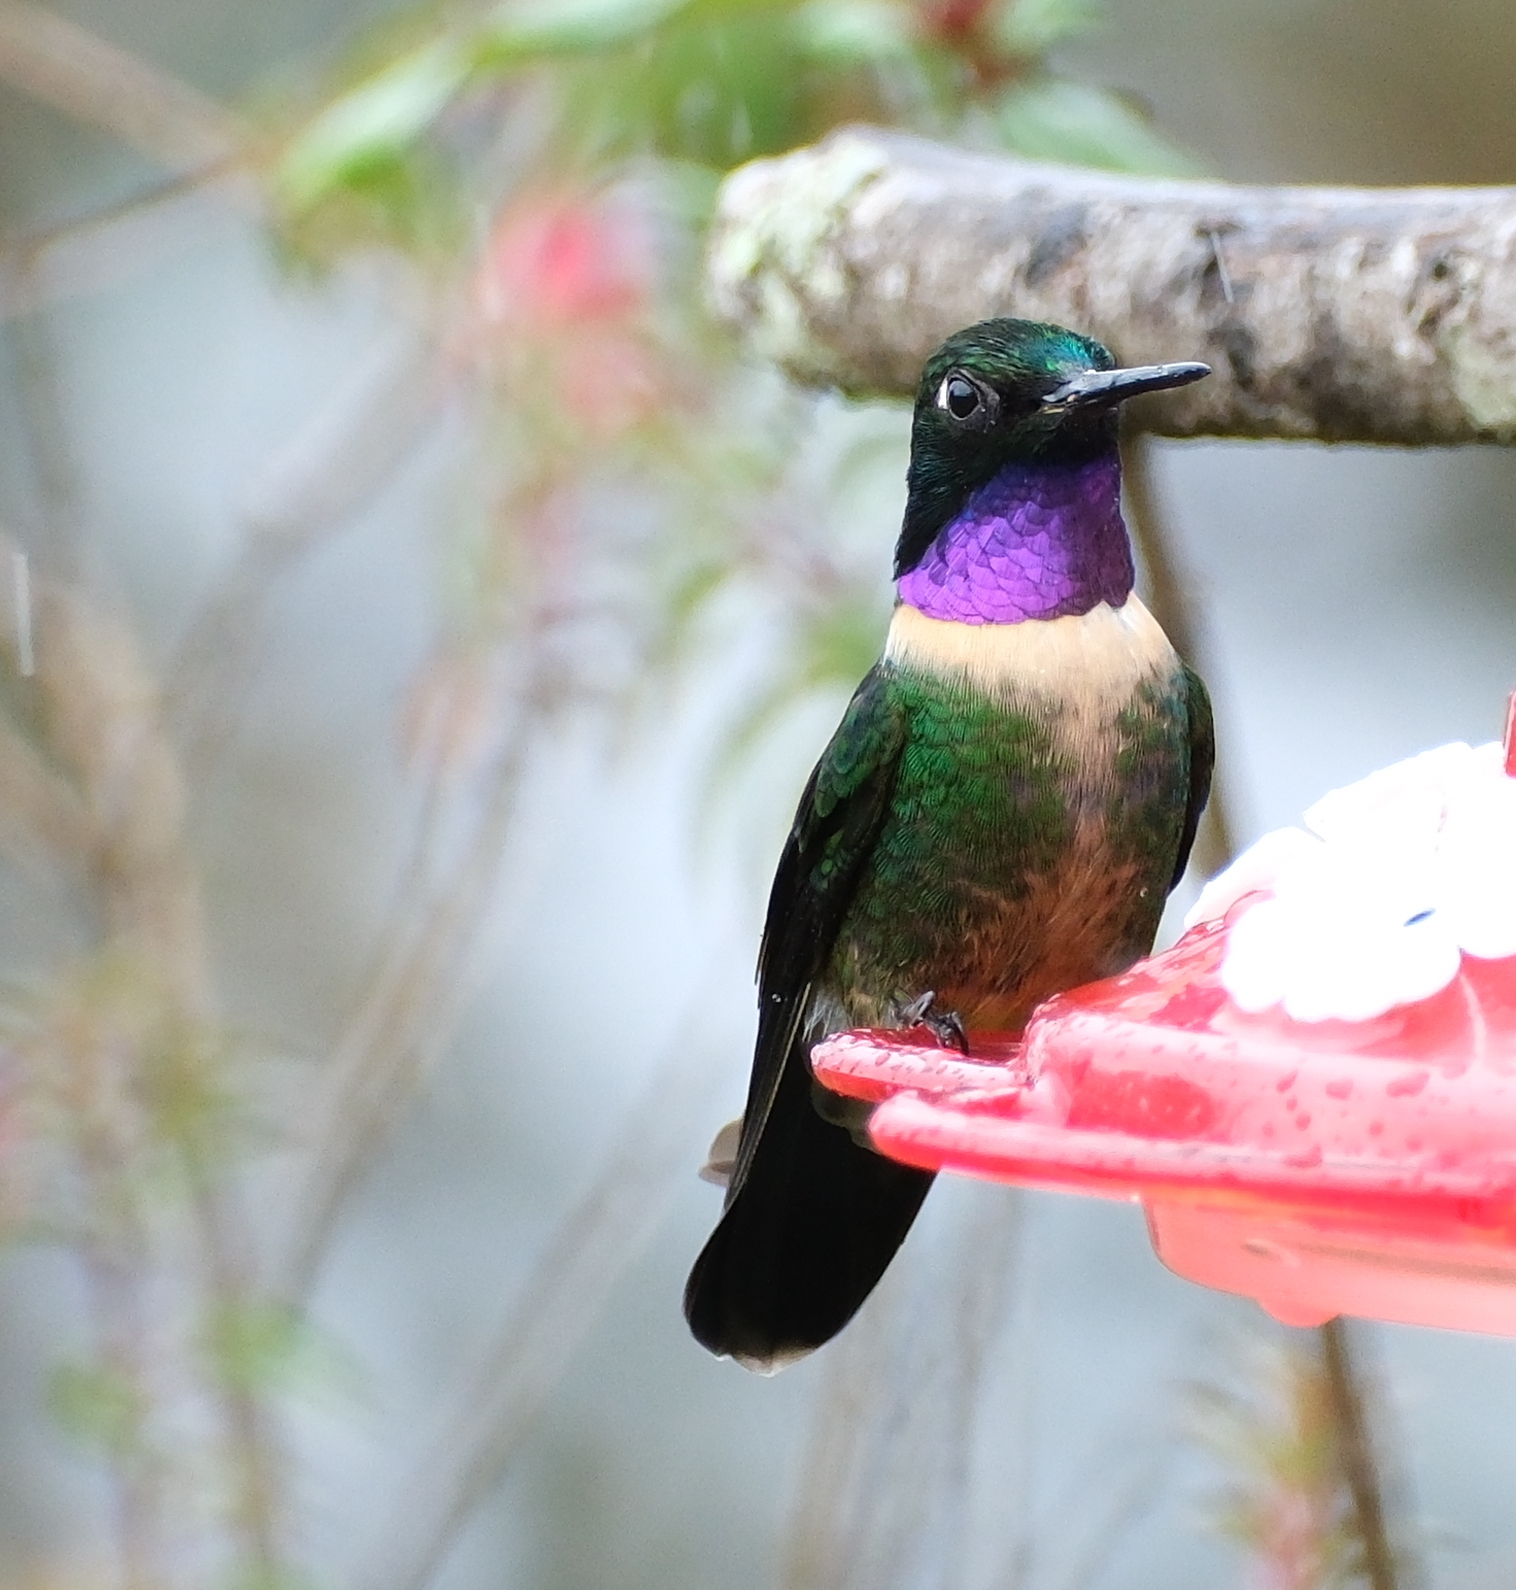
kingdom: Animalia
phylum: Chordata
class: Aves
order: Apodiformes
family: Trochilidae
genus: Heliangelus
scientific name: Heliangelus amethysticollis
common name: Amethyst-throated sunangel
